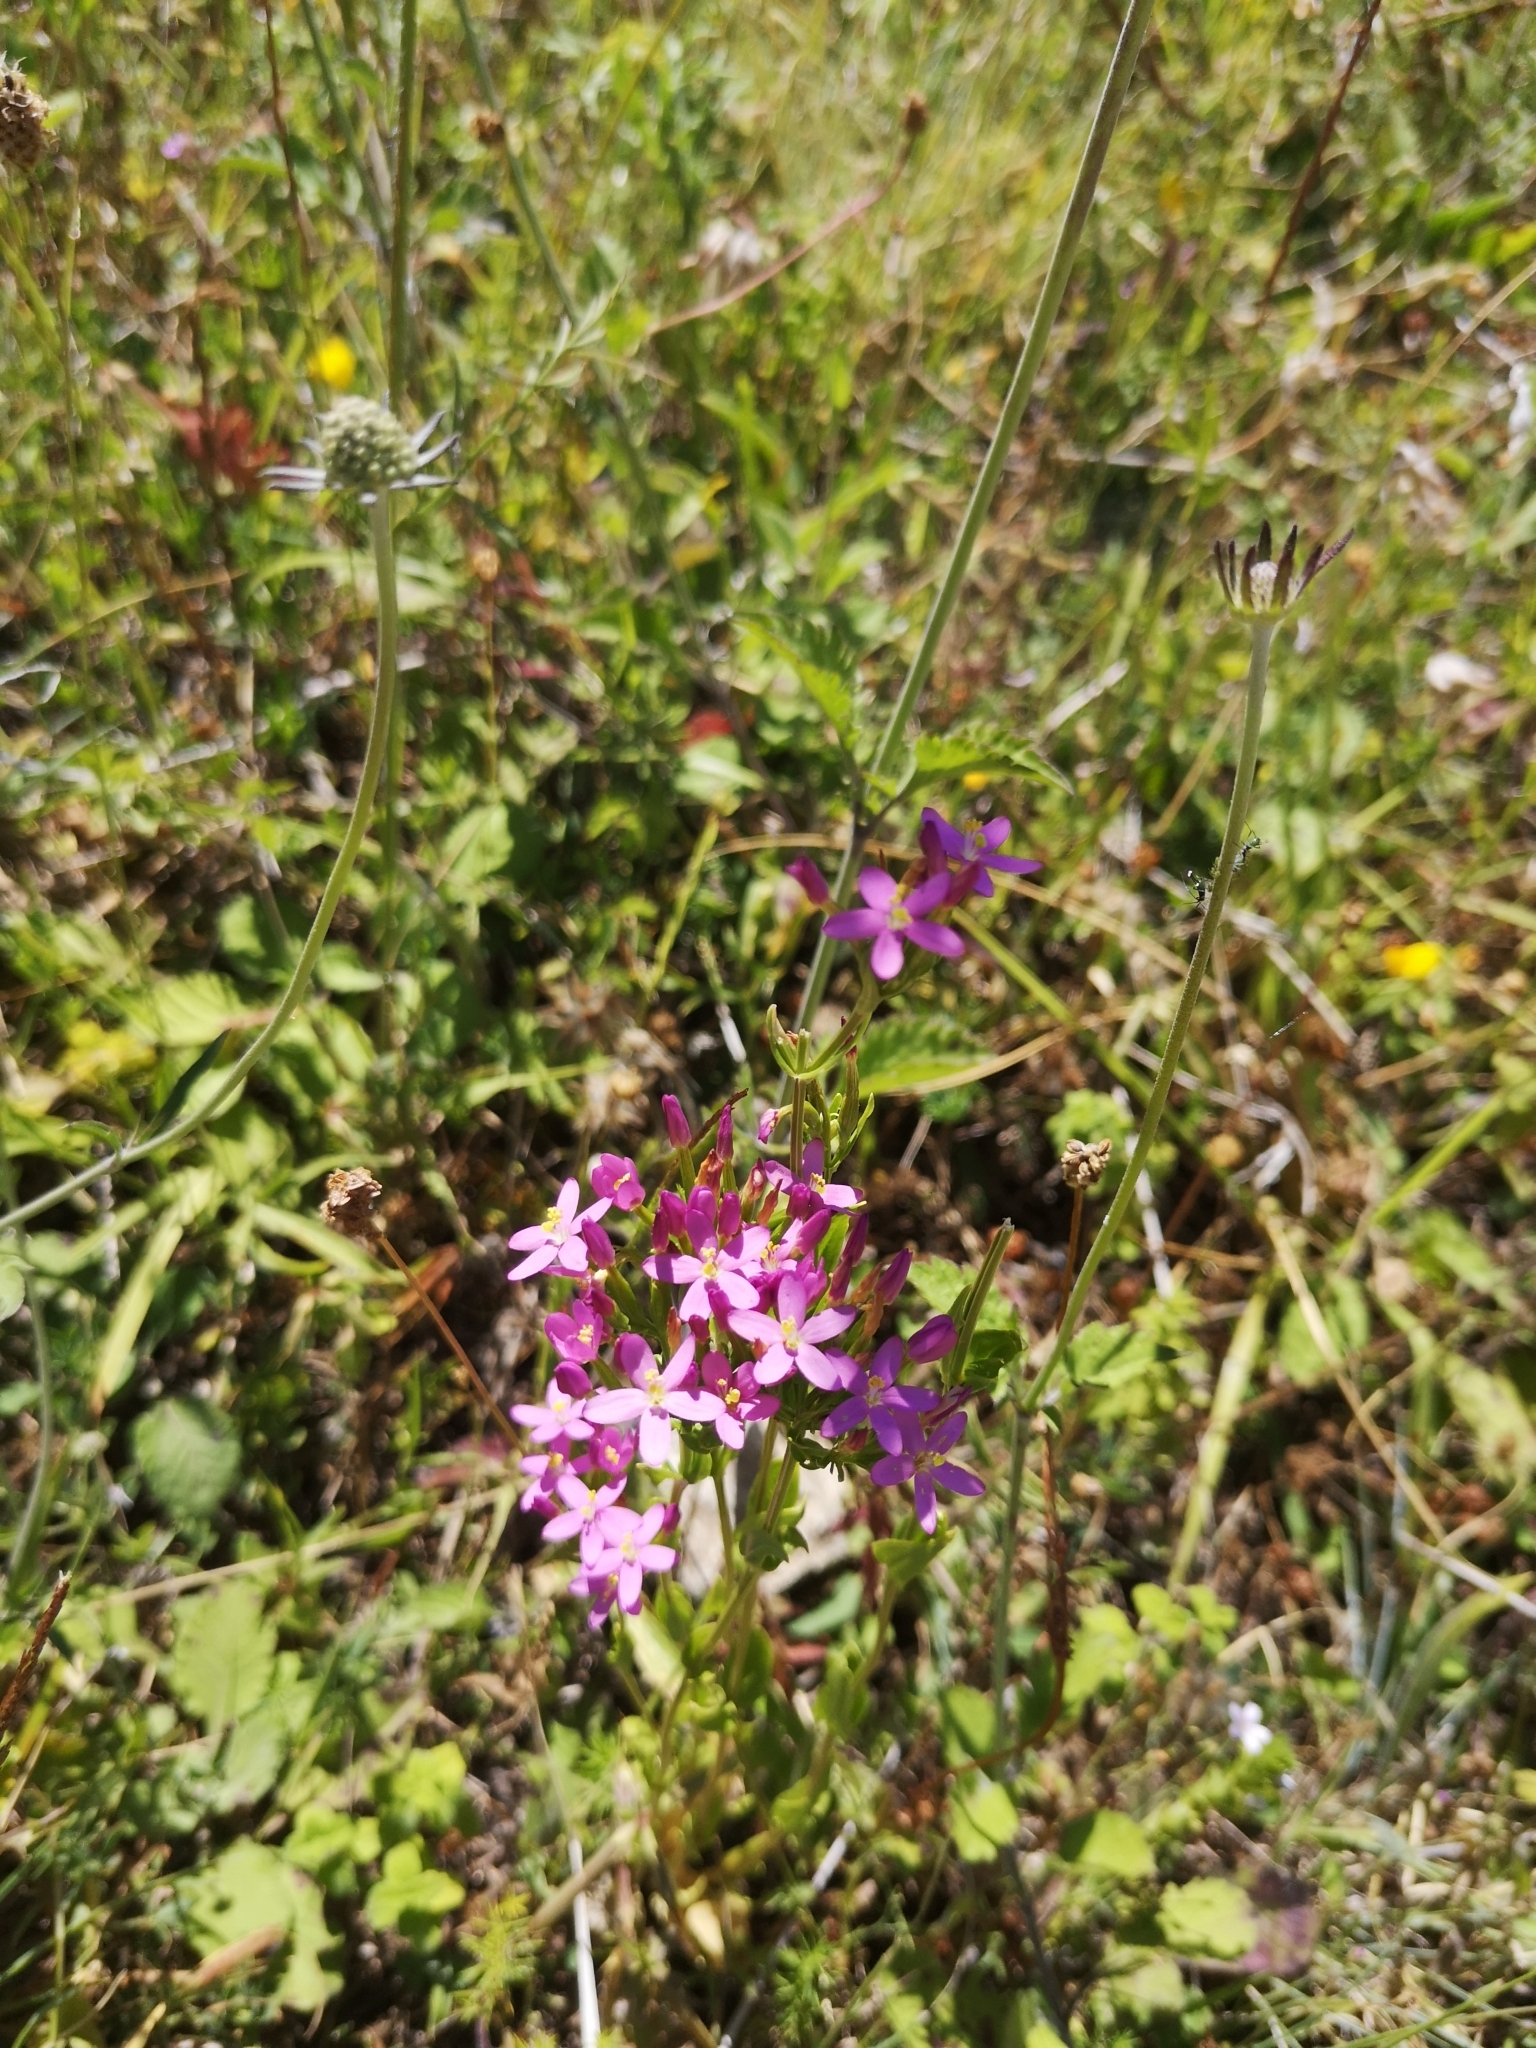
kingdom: Plantae
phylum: Tracheophyta
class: Magnoliopsida
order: Gentianales
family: Gentianaceae
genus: Centaurium
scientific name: Centaurium erythraea
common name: Common centaury
